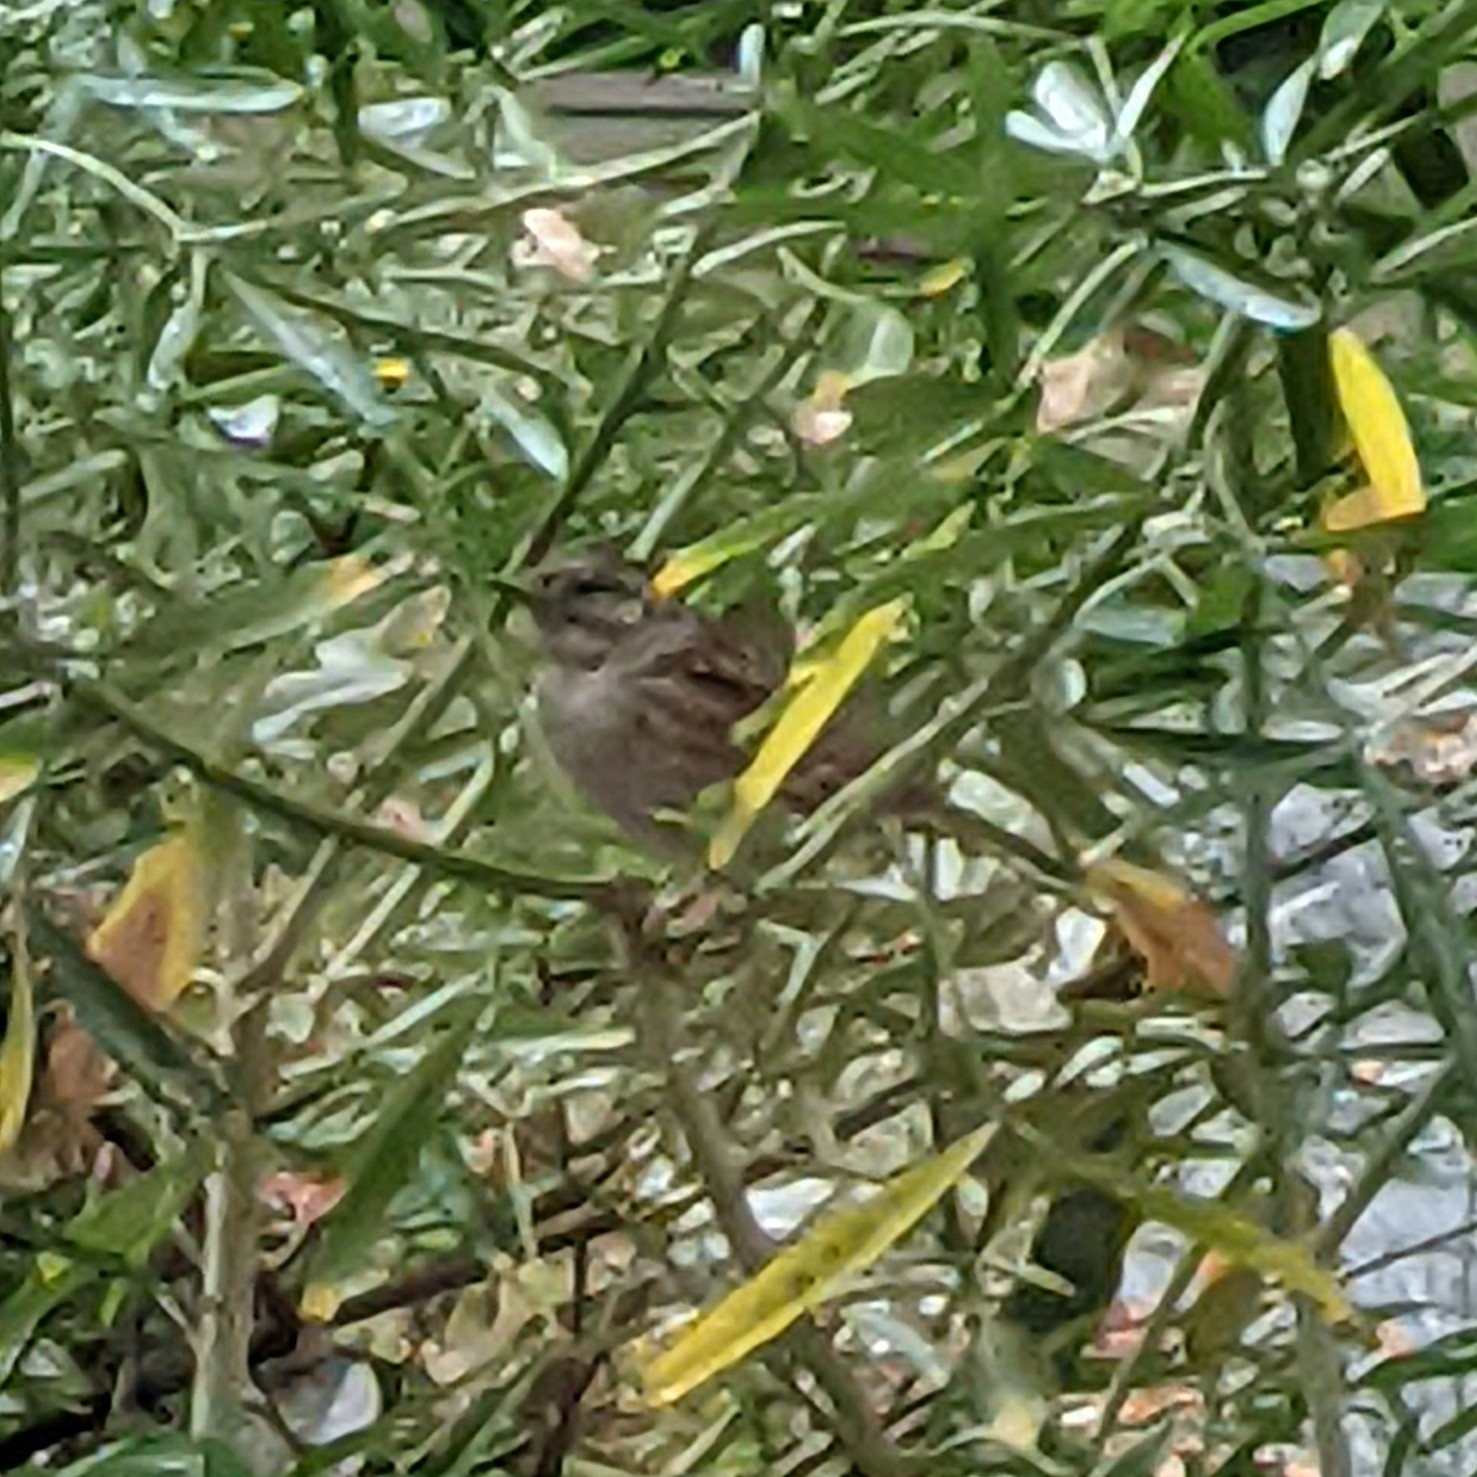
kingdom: Animalia
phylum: Chordata
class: Aves
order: Passeriformes
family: Prunellidae
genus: Prunella
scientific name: Prunella modularis
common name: Dunnock
